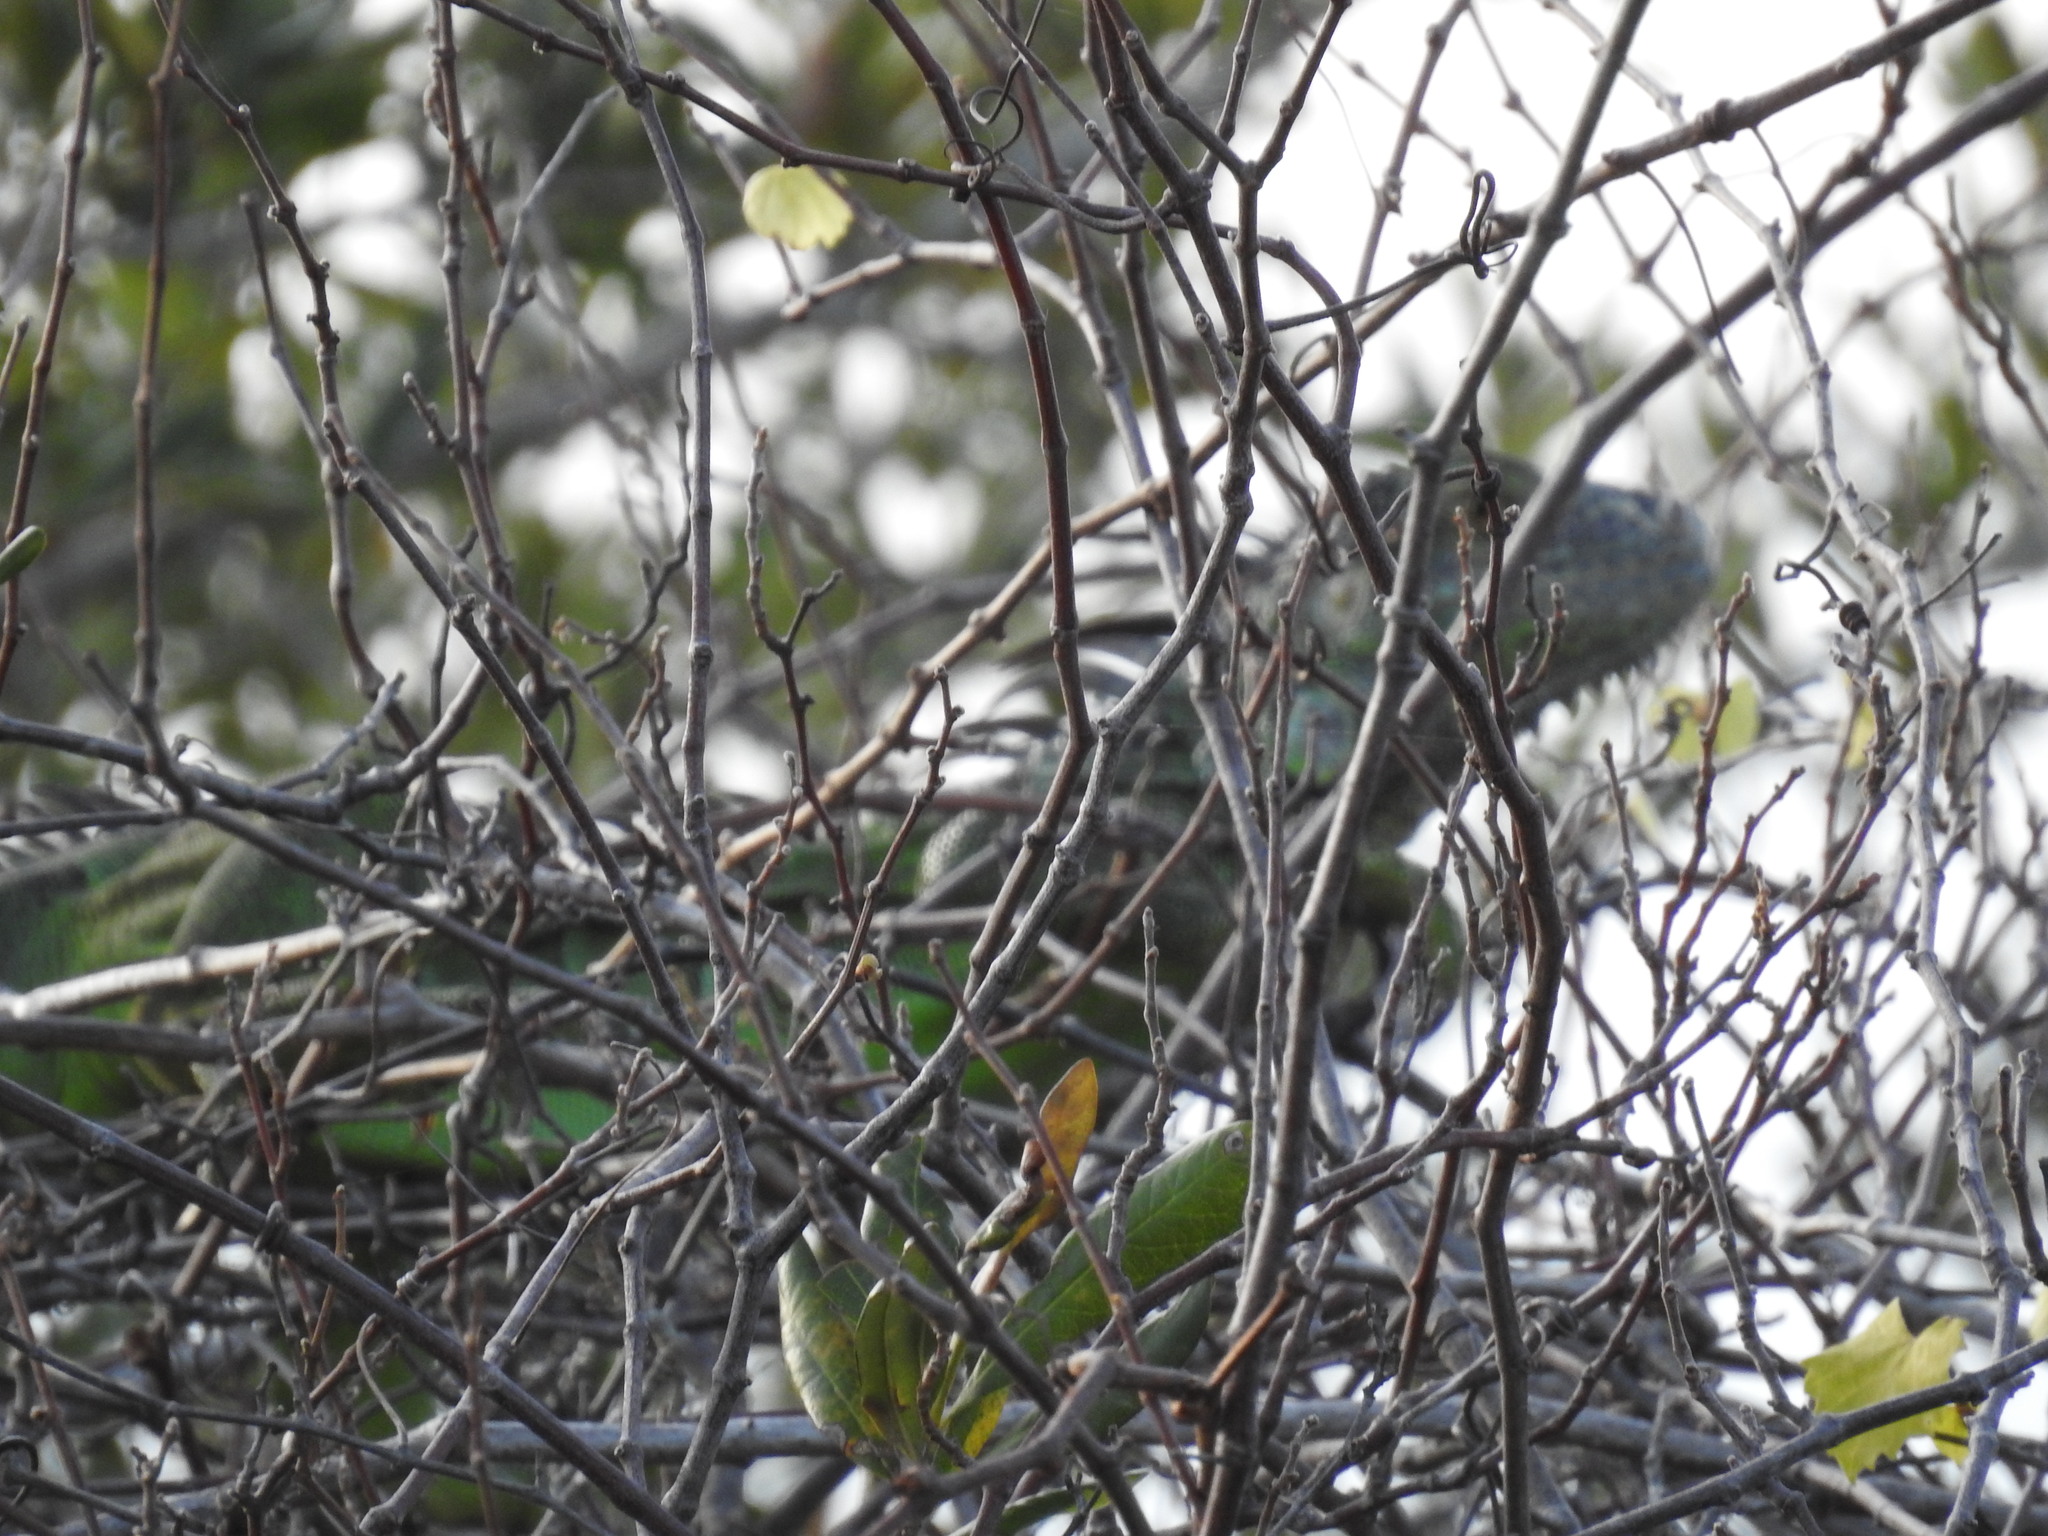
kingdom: Animalia
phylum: Chordata
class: Squamata
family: Iguanidae
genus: Iguana
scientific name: Iguana iguana
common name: Green iguana
